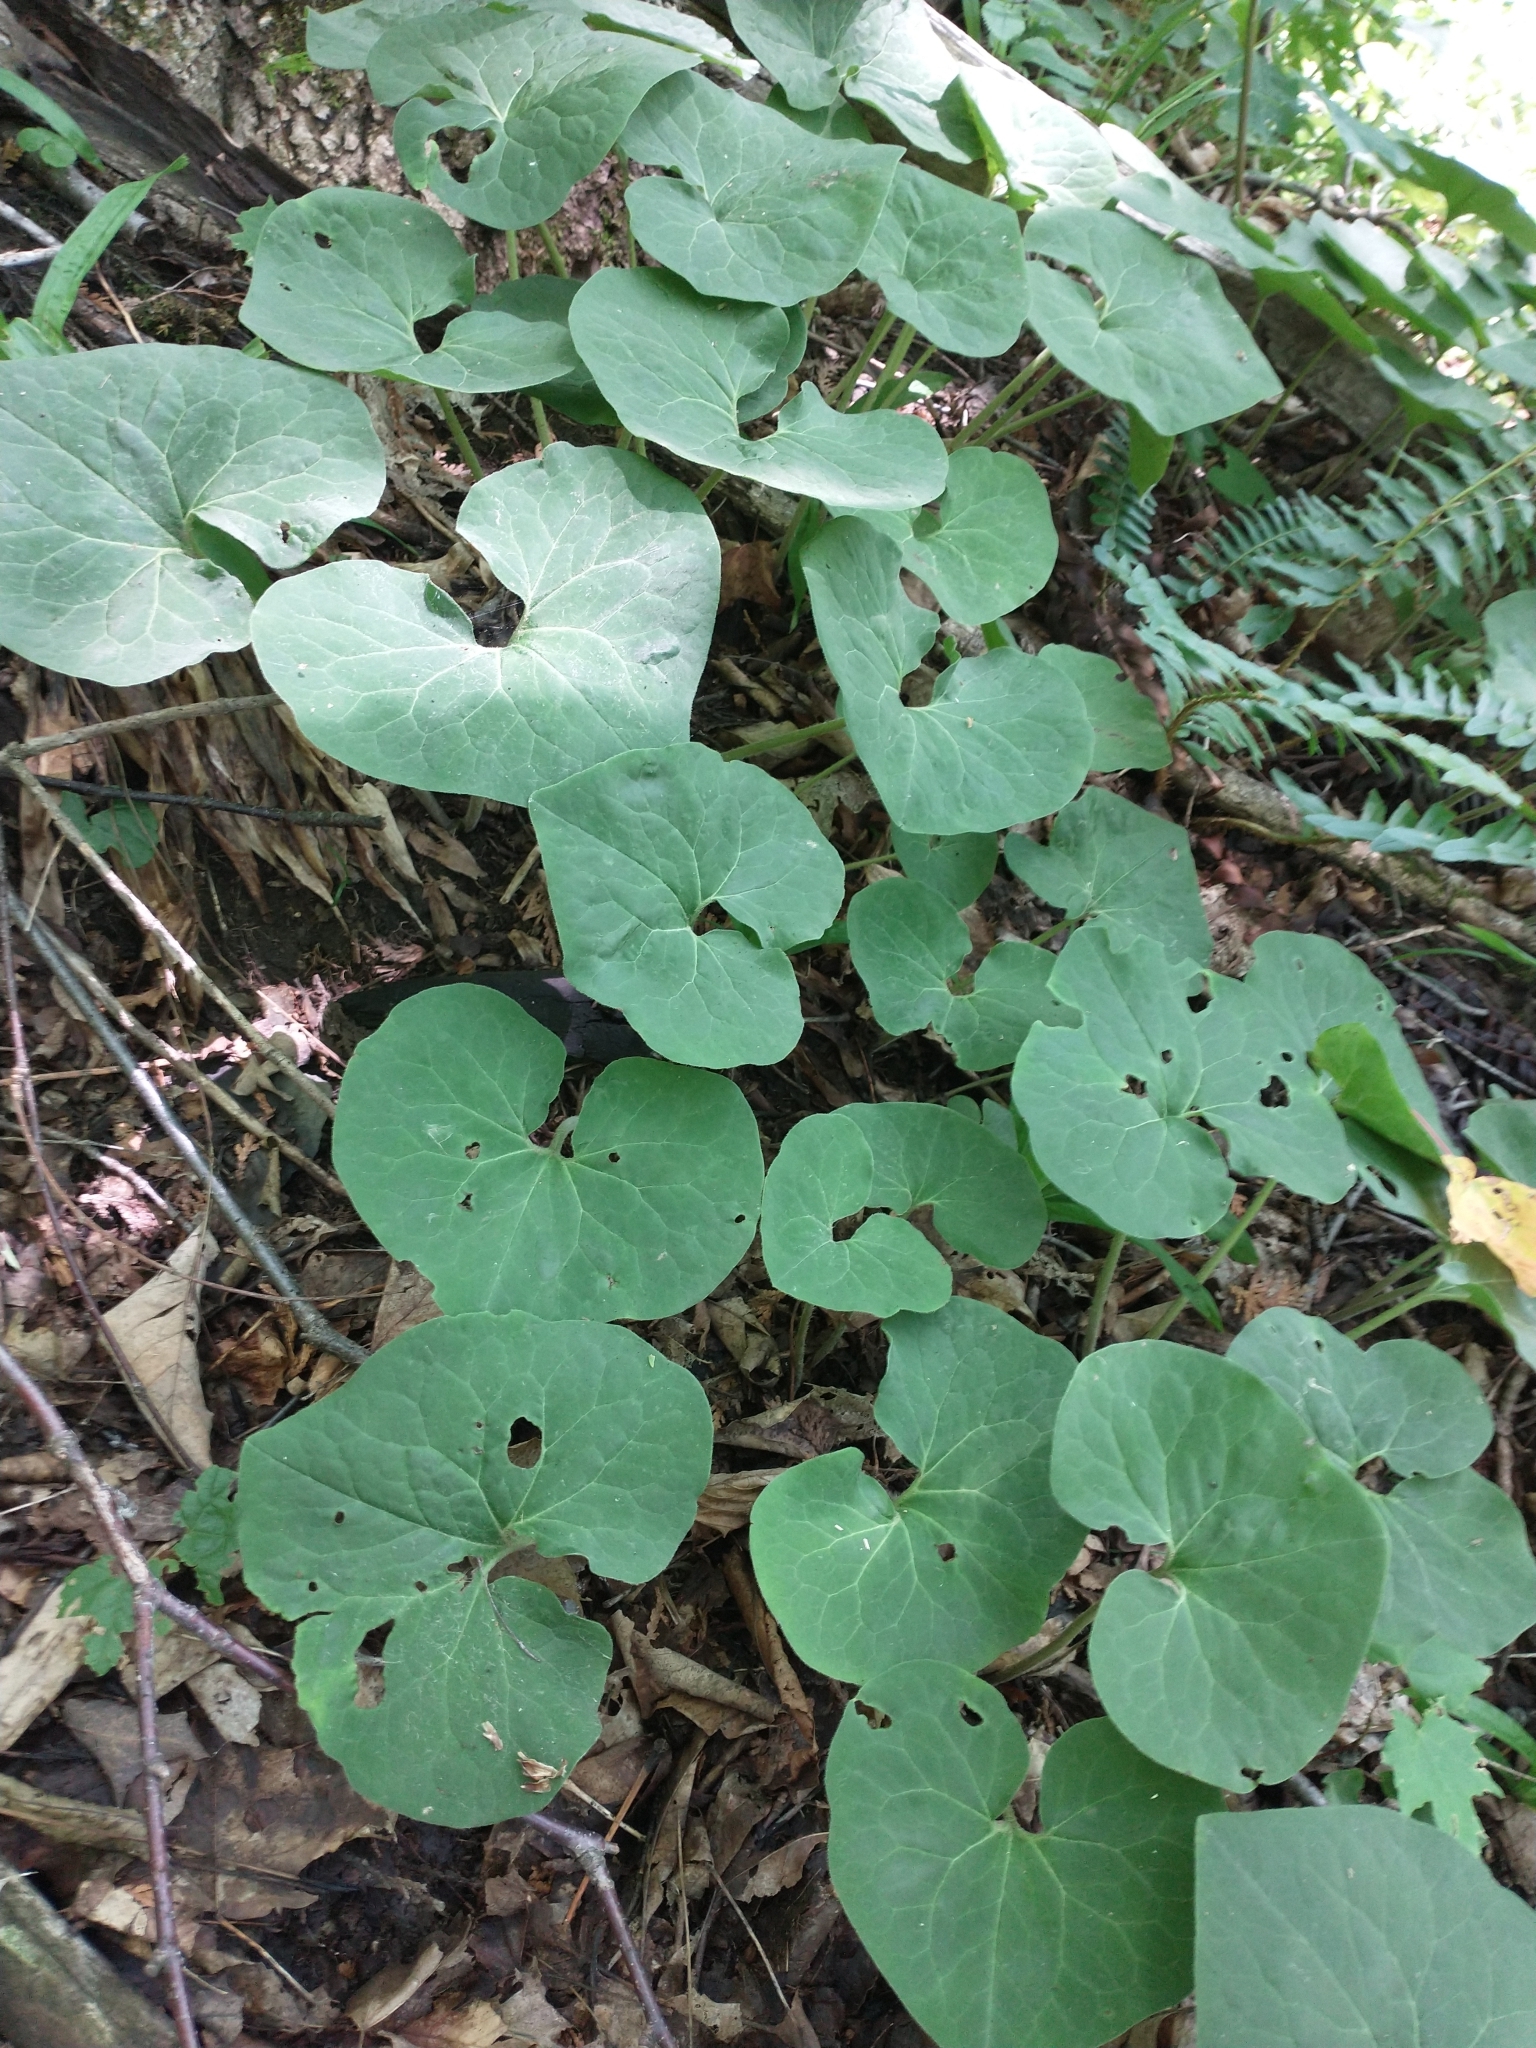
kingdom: Plantae
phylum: Tracheophyta
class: Magnoliopsida
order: Piperales
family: Aristolochiaceae
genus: Asarum
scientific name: Asarum canadense
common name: Wild ginger
